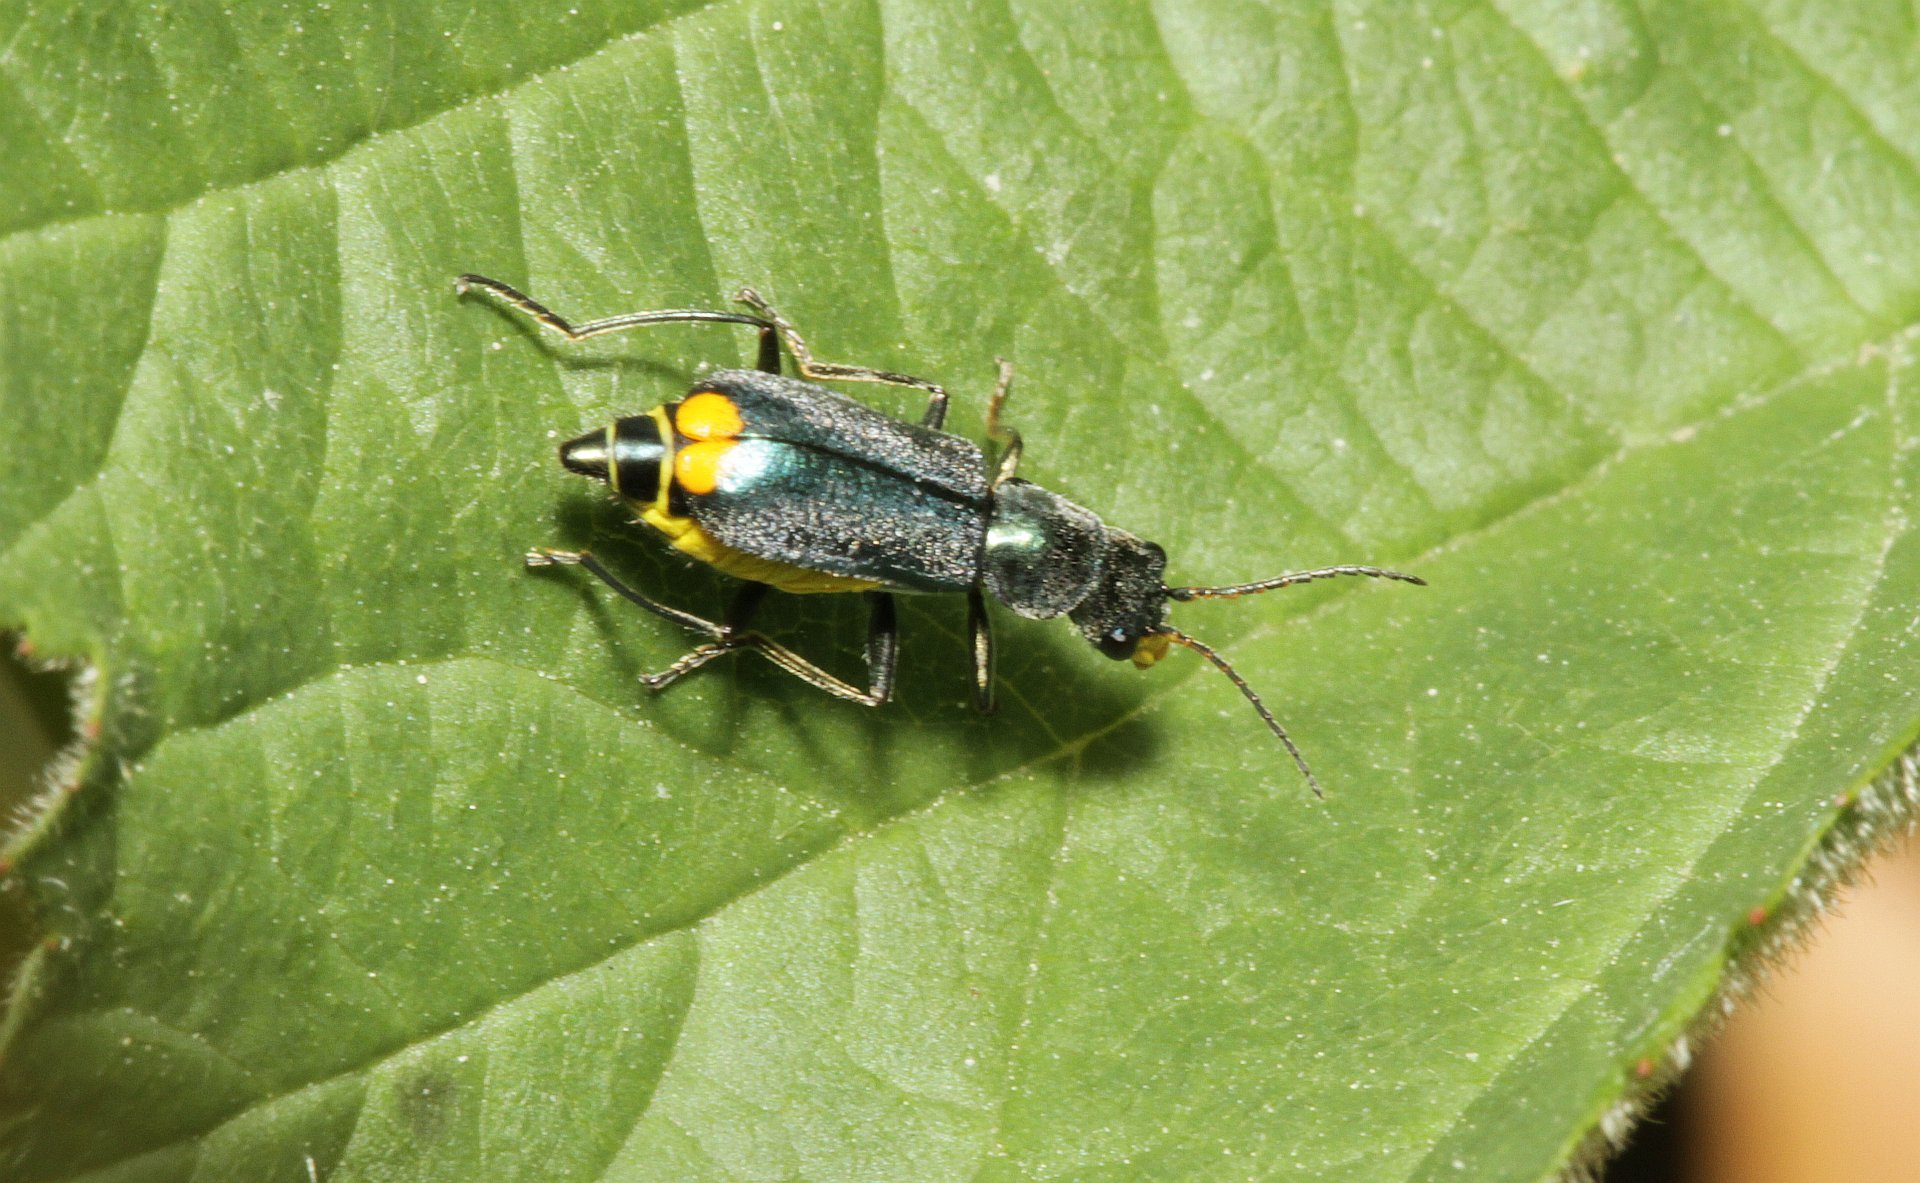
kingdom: Animalia
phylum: Arthropoda
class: Insecta
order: Coleoptera
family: Malachiidae
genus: Clanoptilus
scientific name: Clanoptilus marginellus
